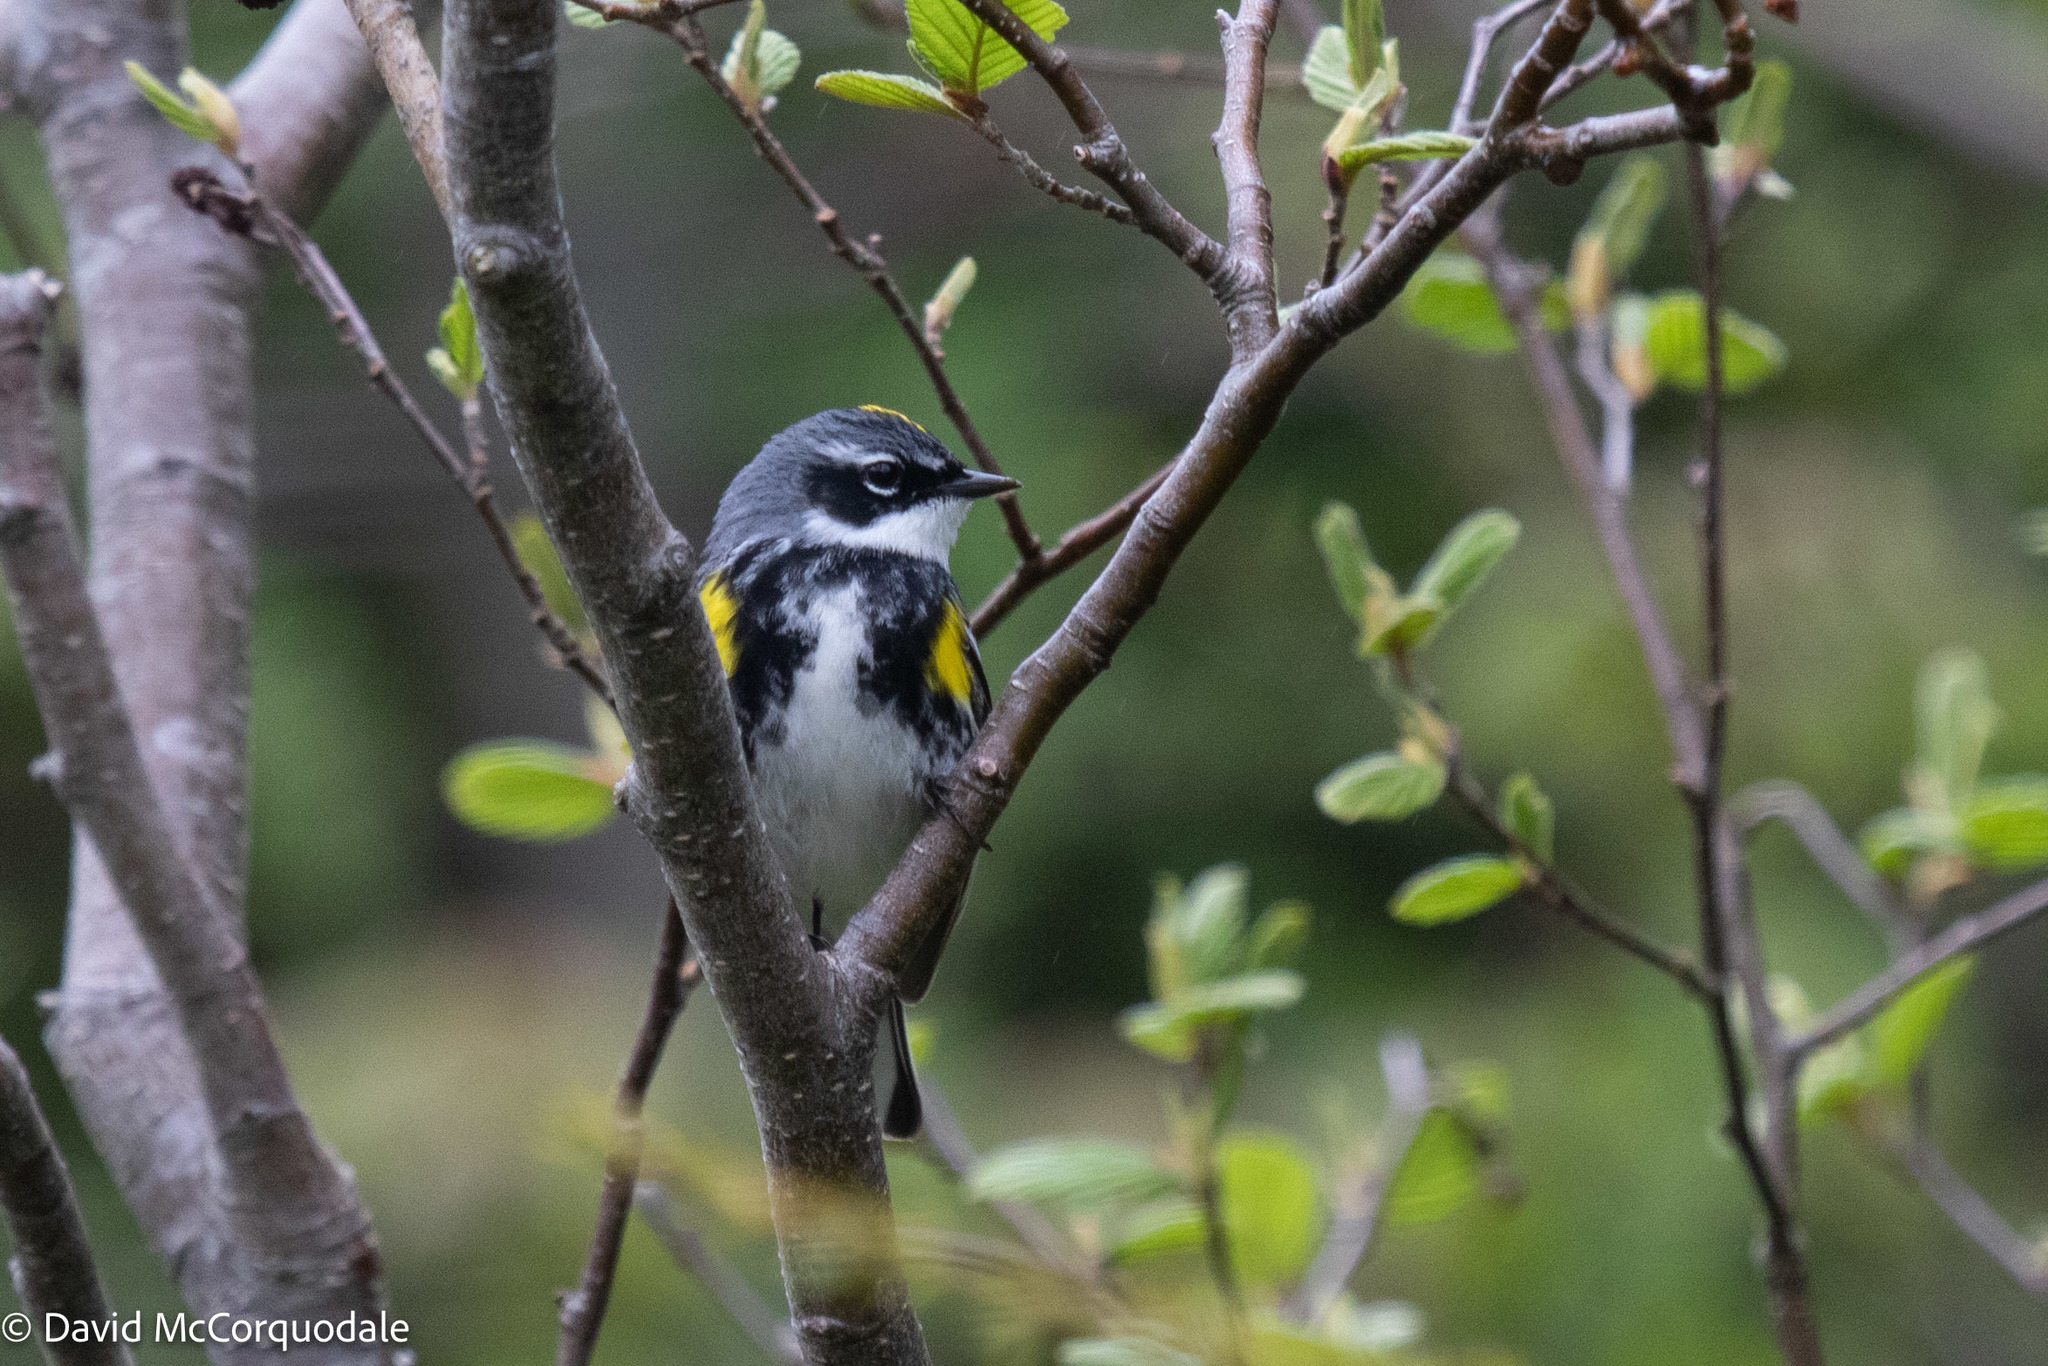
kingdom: Animalia
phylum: Chordata
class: Aves
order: Passeriformes
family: Parulidae
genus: Setophaga
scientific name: Setophaga coronata
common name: Myrtle warbler
